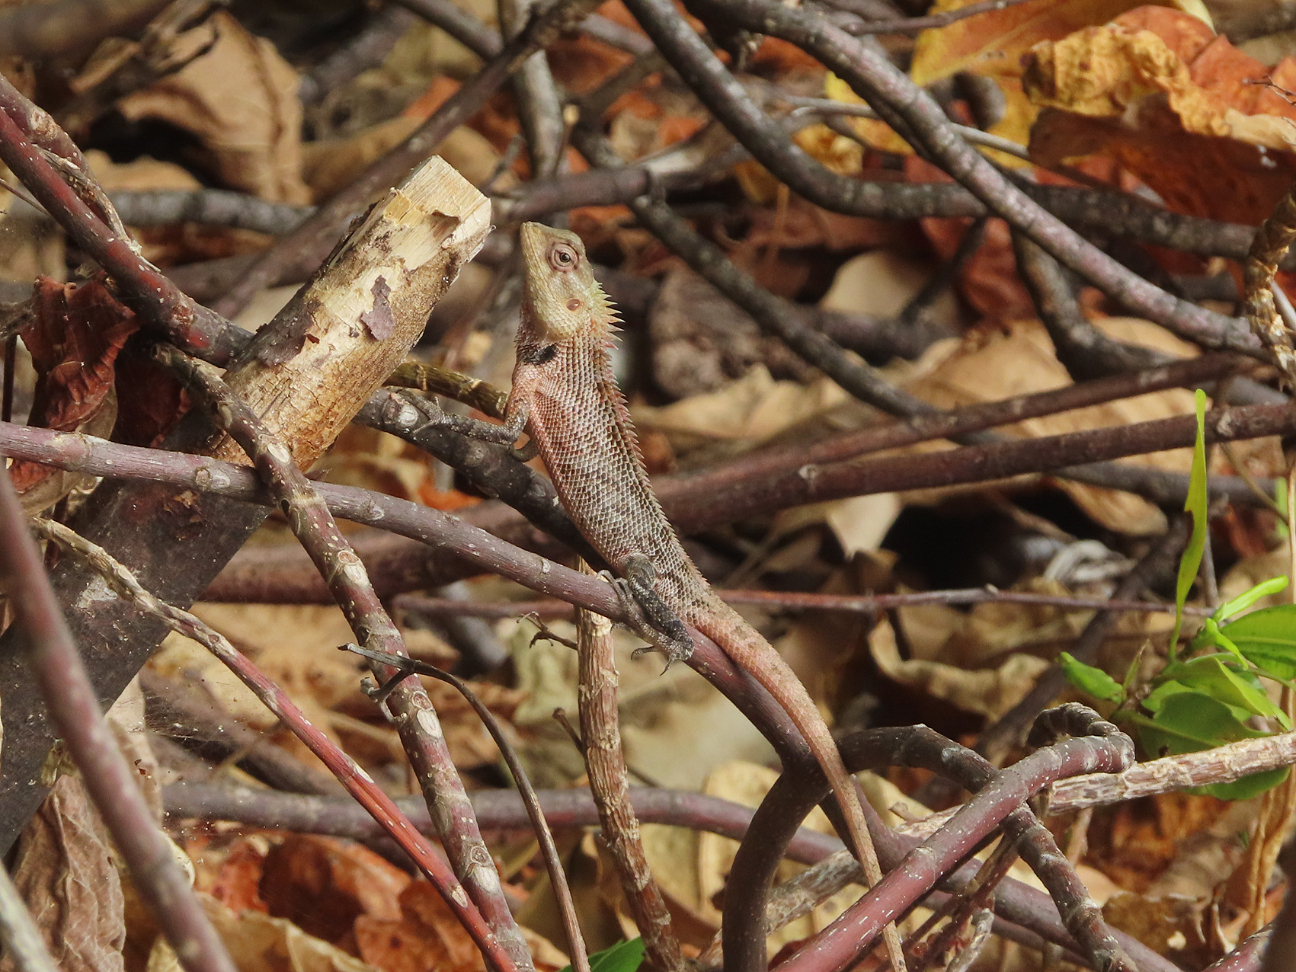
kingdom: Animalia
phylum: Chordata
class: Squamata
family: Agamidae
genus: Calotes
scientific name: Calotes versicolor
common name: Oriental garden lizard
